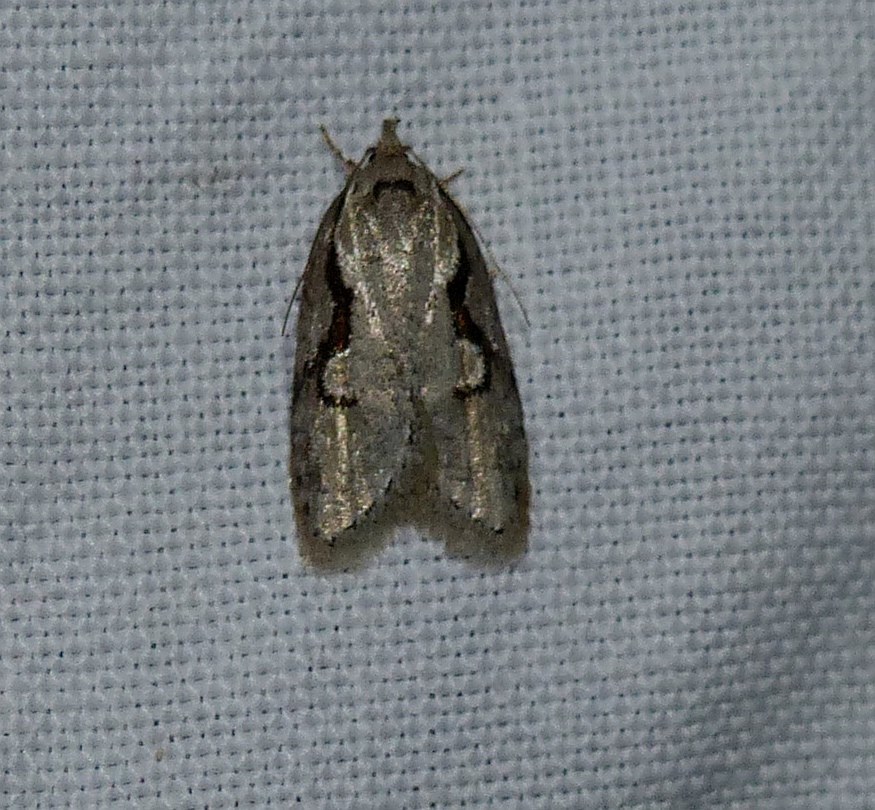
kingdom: Animalia
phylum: Arthropoda
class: Insecta
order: Lepidoptera
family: Depressariidae
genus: Semioscopis
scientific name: Semioscopis packardella
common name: Packard's concealer moth
